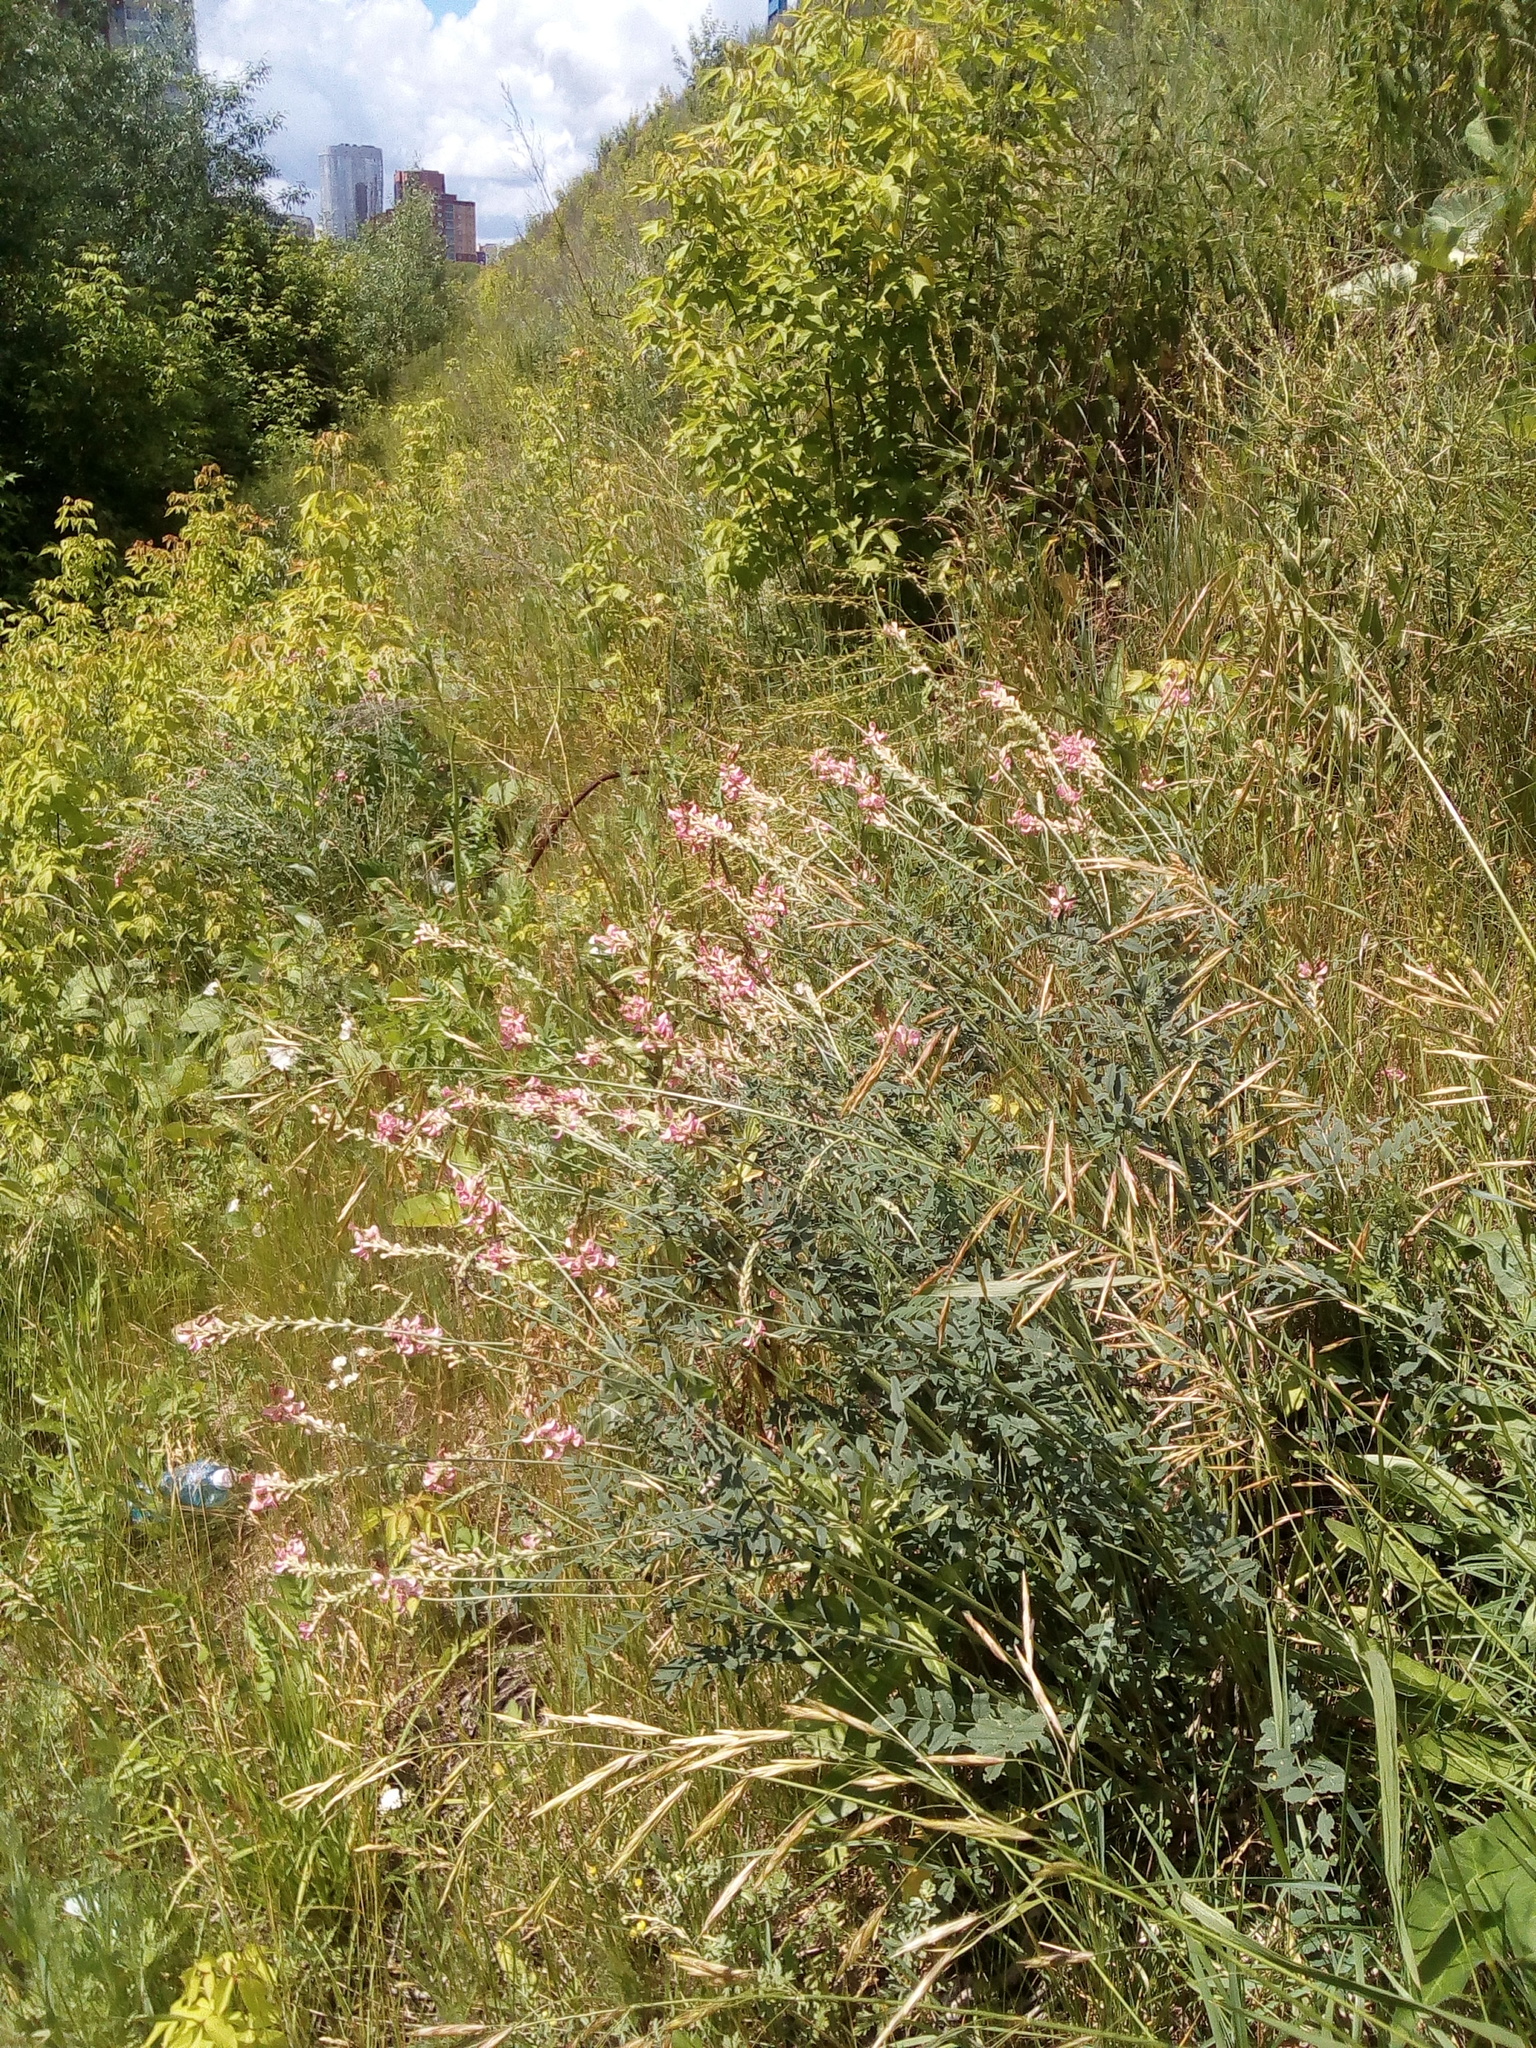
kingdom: Plantae
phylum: Tracheophyta
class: Magnoliopsida
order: Fabales
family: Fabaceae
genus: Onobrychis
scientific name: Onobrychis viciifolia
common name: Sainfoin
